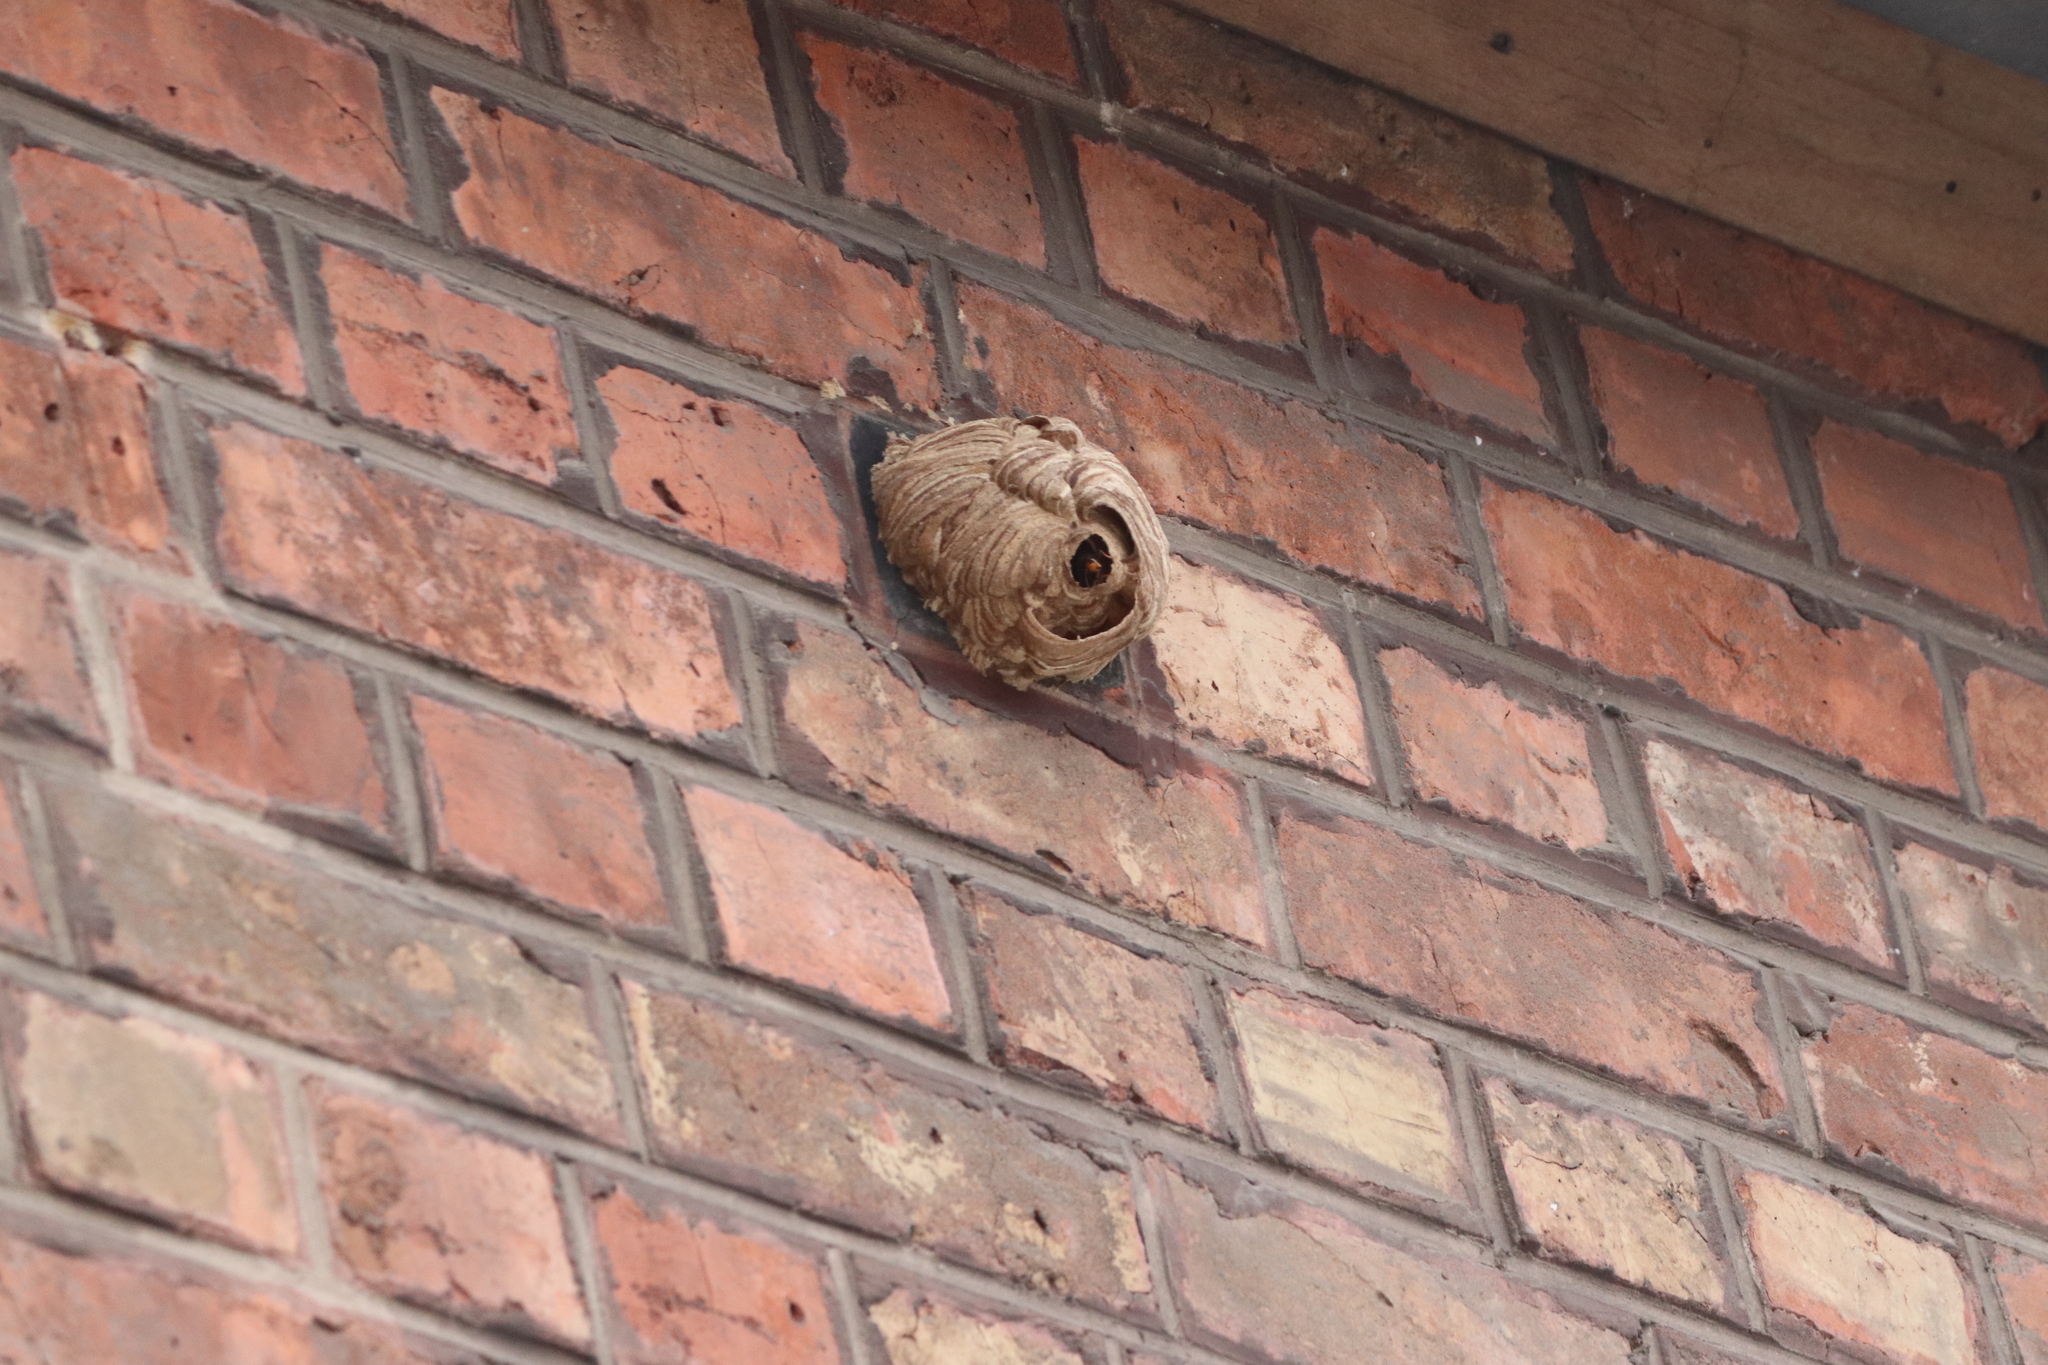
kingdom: Animalia
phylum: Arthropoda
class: Insecta
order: Hymenoptera
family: Vespidae
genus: Vespa
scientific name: Vespa velutina
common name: Asian hornet
